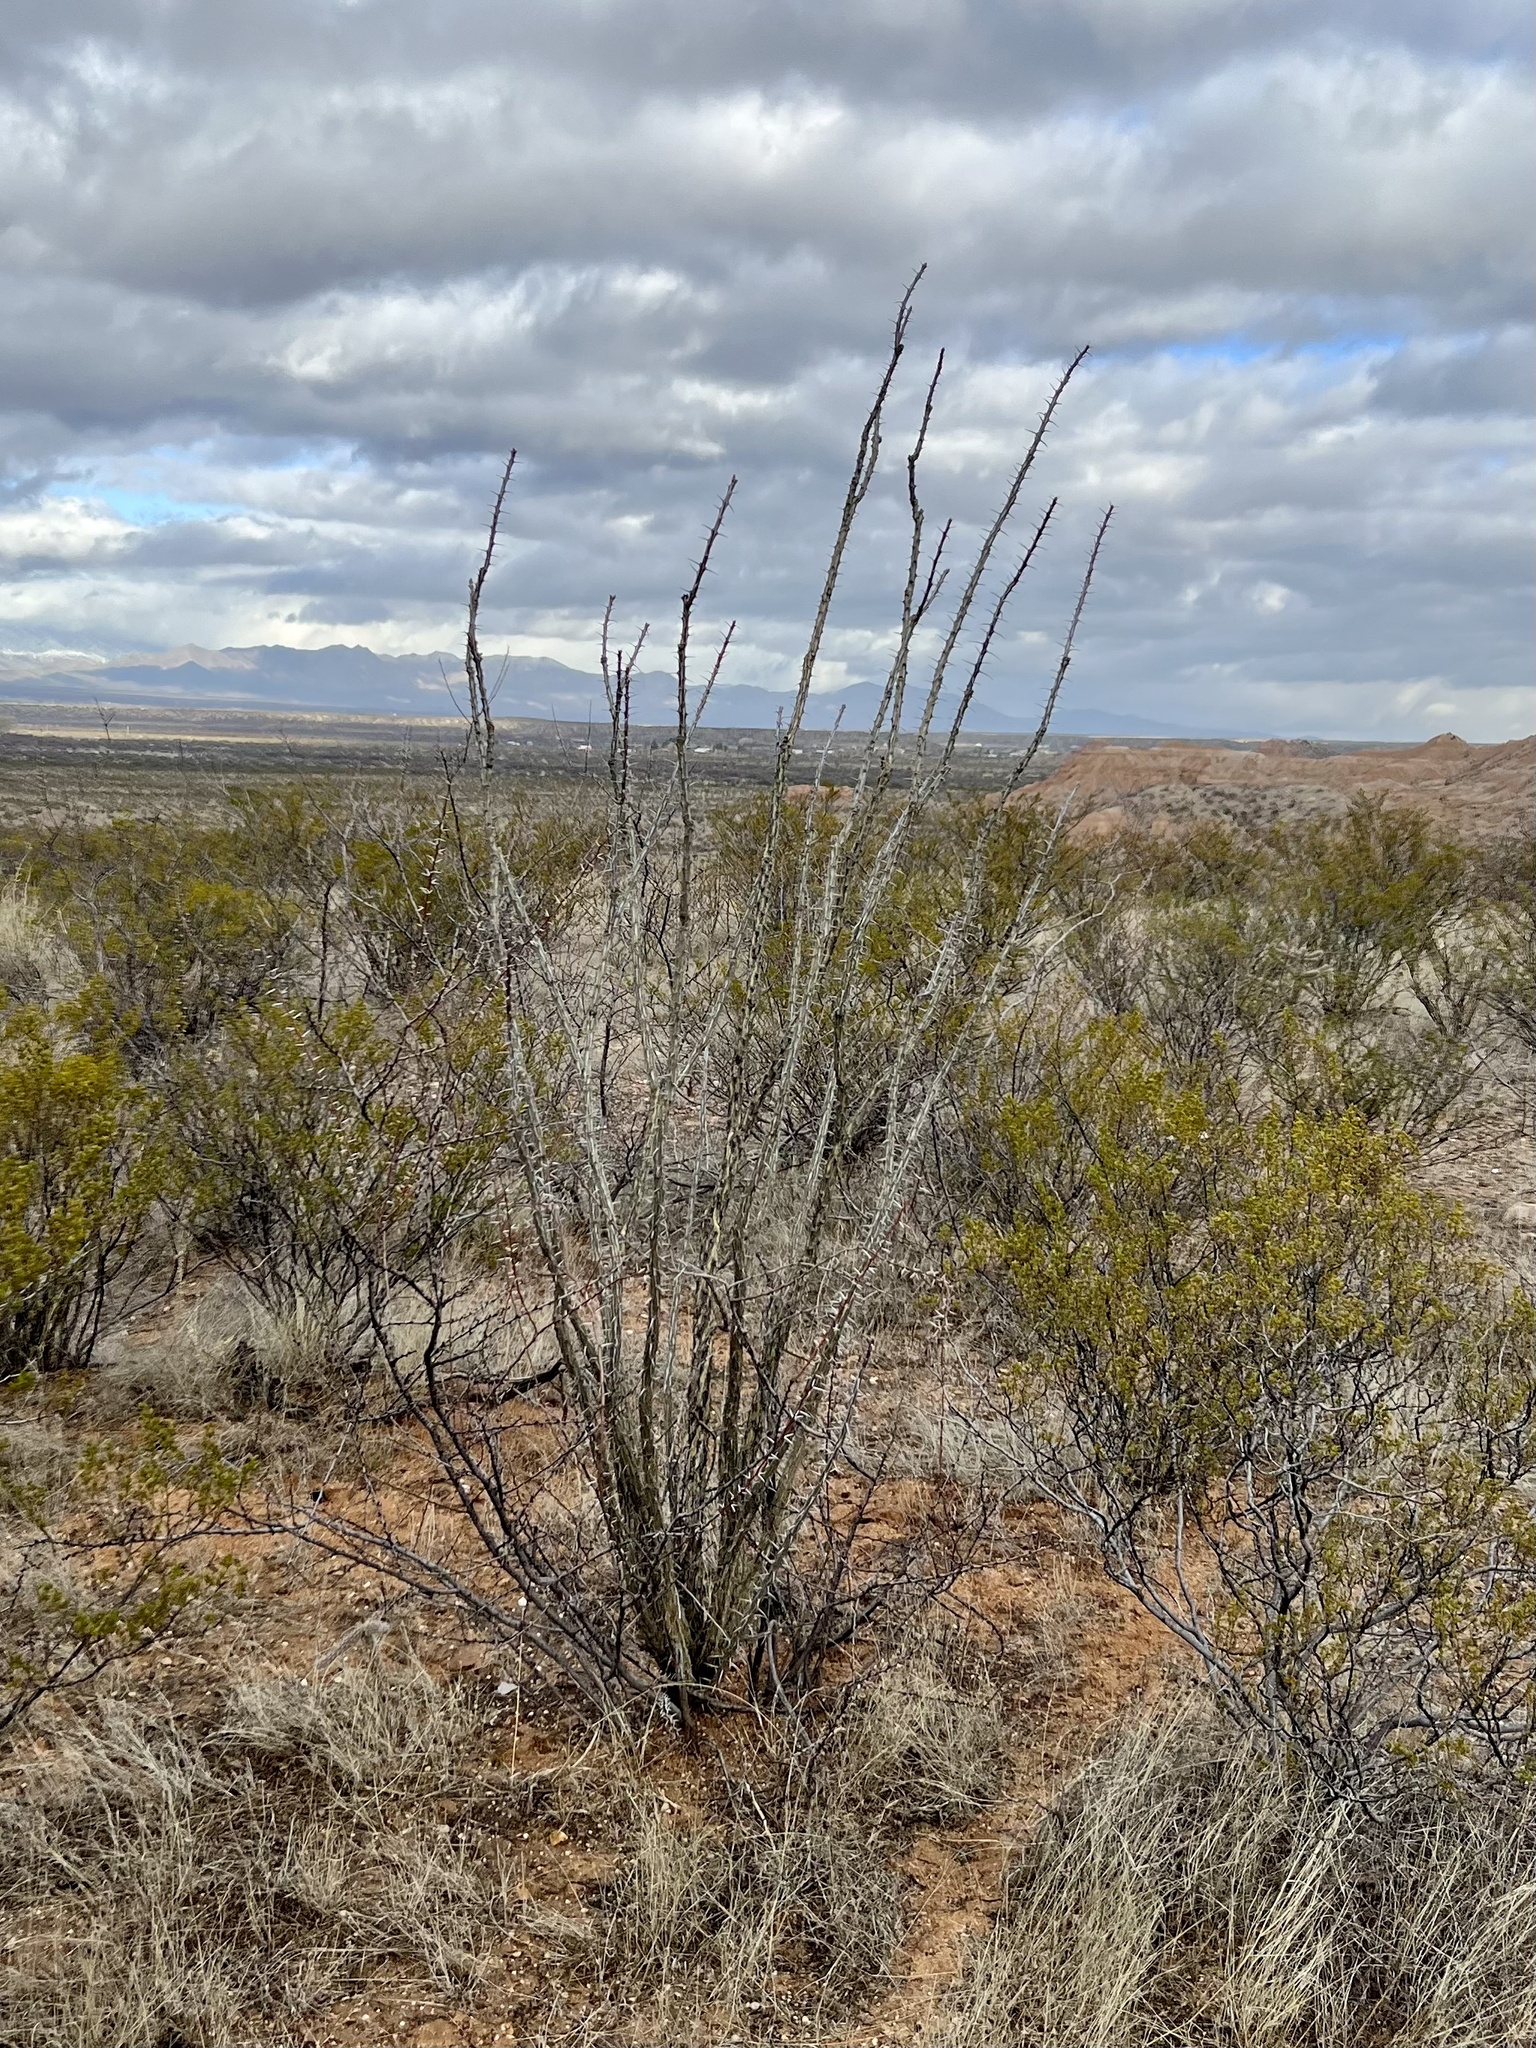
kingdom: Plantae
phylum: Tracheophyta
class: Magnoliopsida
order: Ericales
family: Fouquieriaceae
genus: Fouquieria
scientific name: Fouquieria splendens
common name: Vine-cactus
